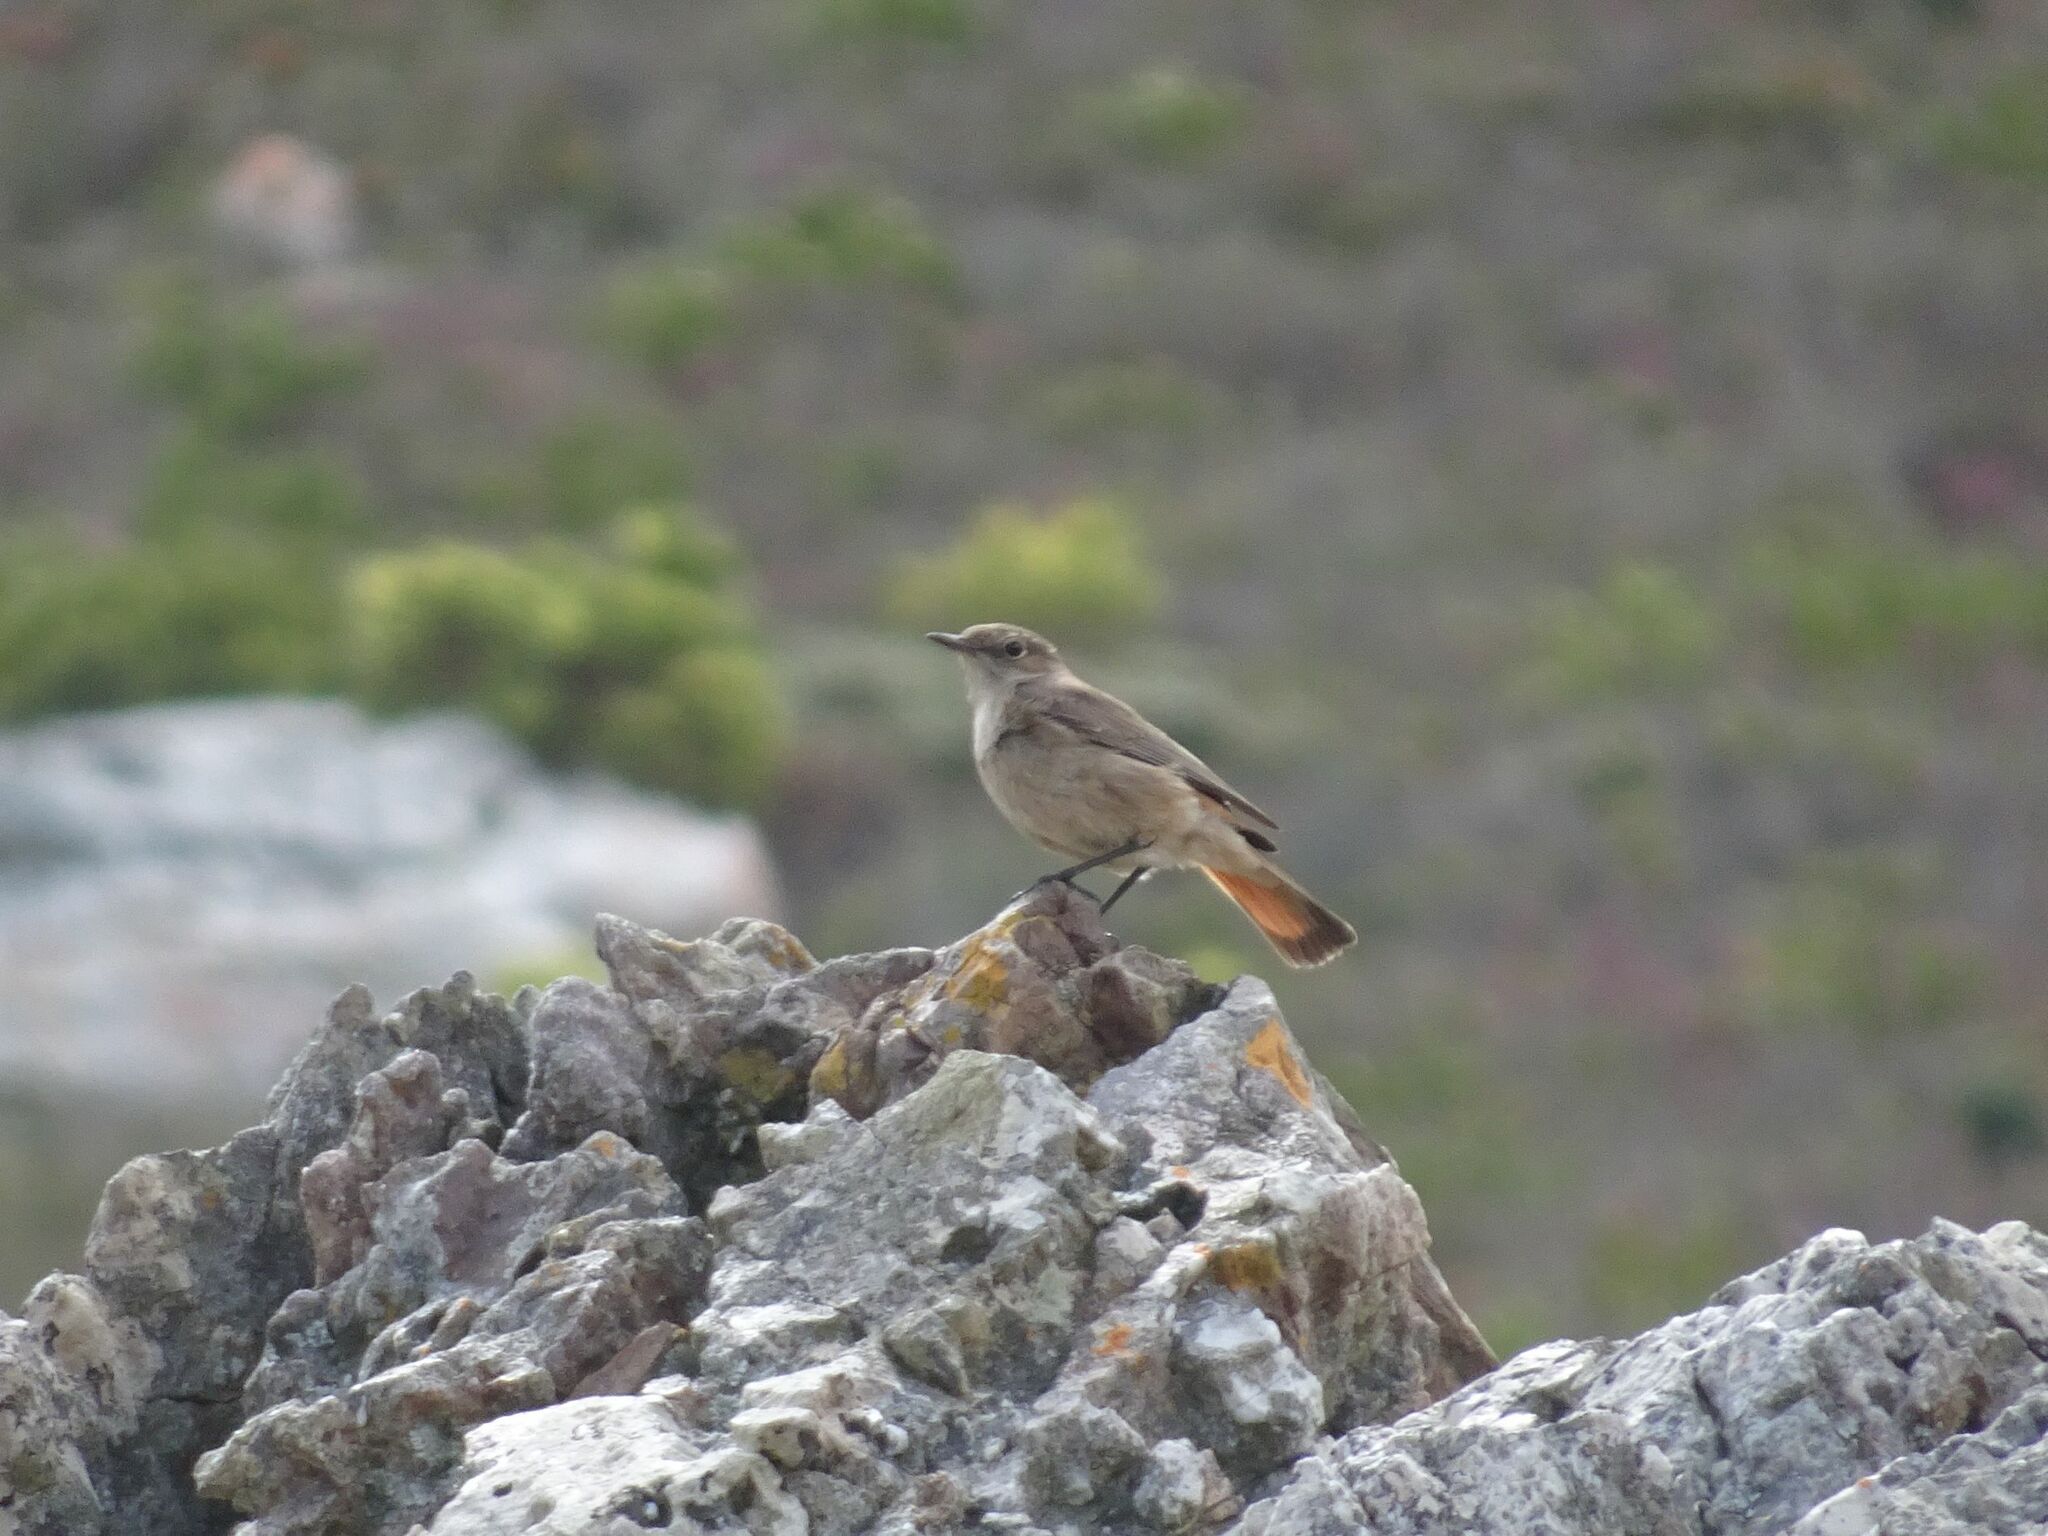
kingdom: Animalia
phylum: Chordata
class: Aves
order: Passeriformes
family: Muscicapidae
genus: Oenanthe
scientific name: Oenanthe familiaris
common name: Familiar chat
